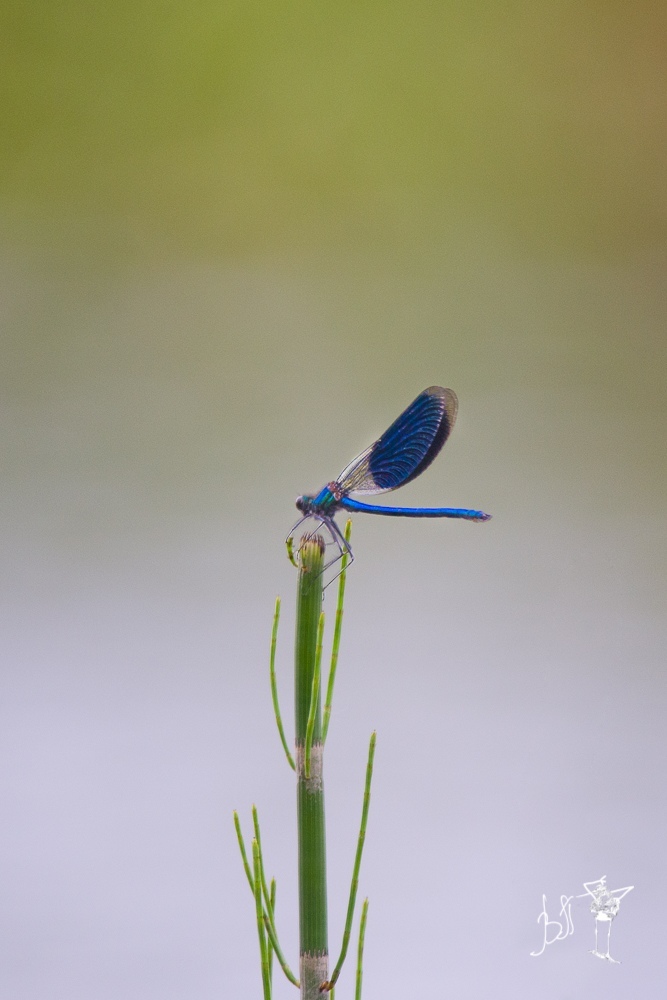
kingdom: Animalia
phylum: Arthropoda
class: Insecta
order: Odonata
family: Calopterygidae
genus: Calopteryx
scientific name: Calopteryx splendens
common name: Banded demoiselle
